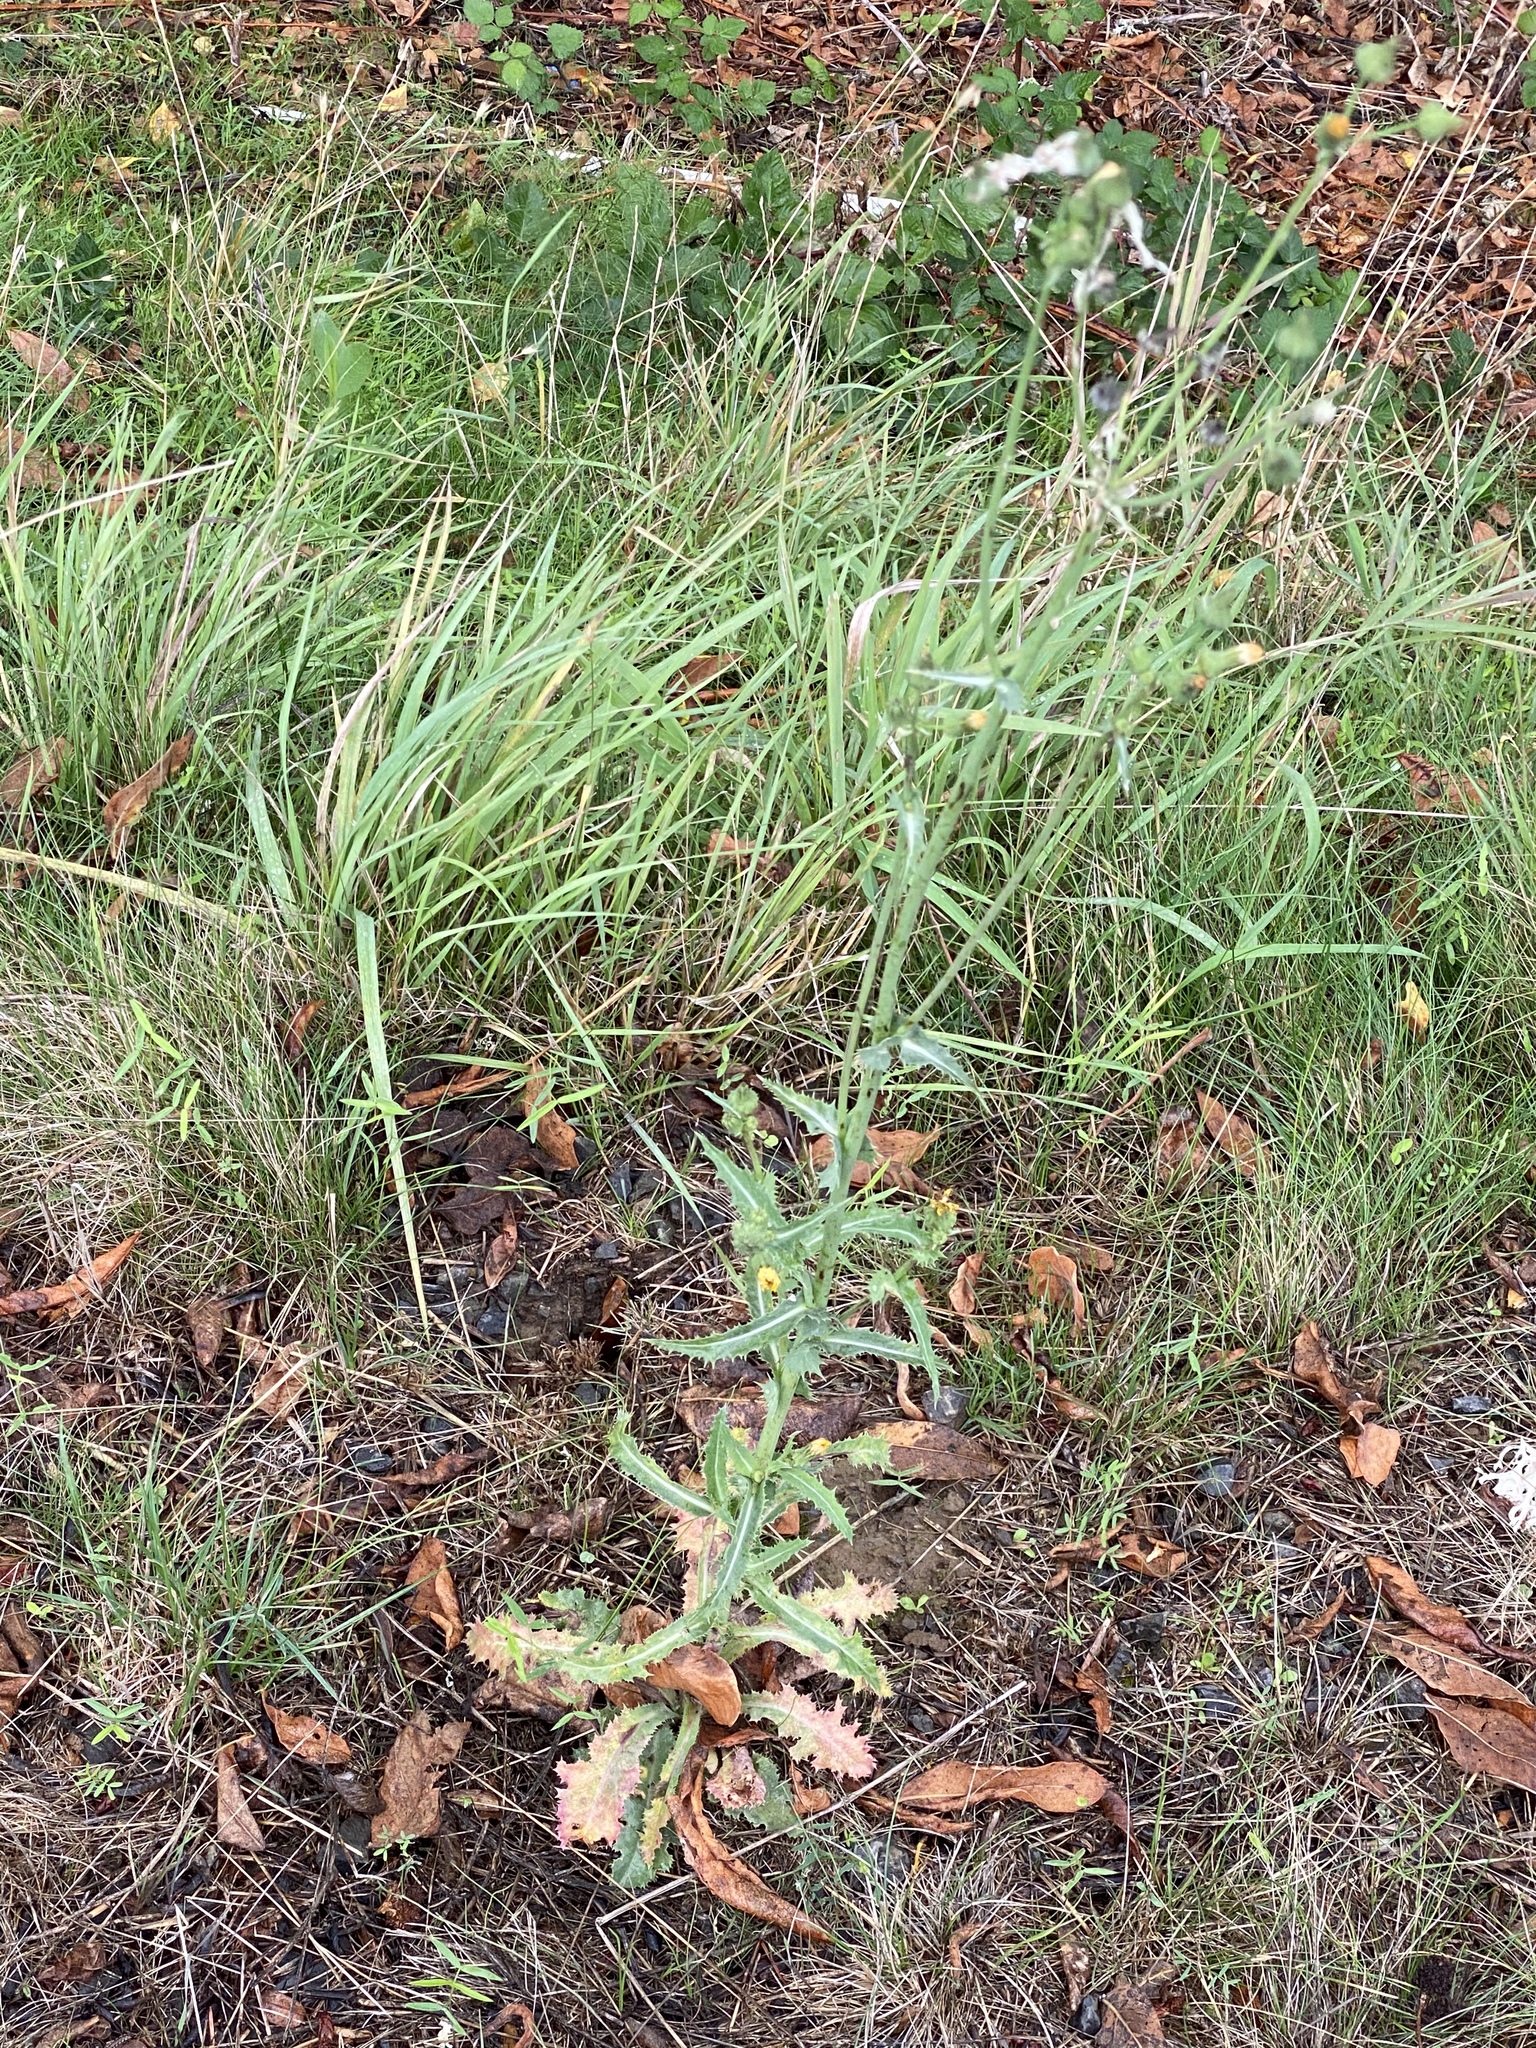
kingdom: Plantae
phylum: Tracheophyta
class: Magnoliopsida
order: Asterales
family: Asteraceae
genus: Sonchus
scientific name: Sonchus asper
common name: Prickly sow-thistle
